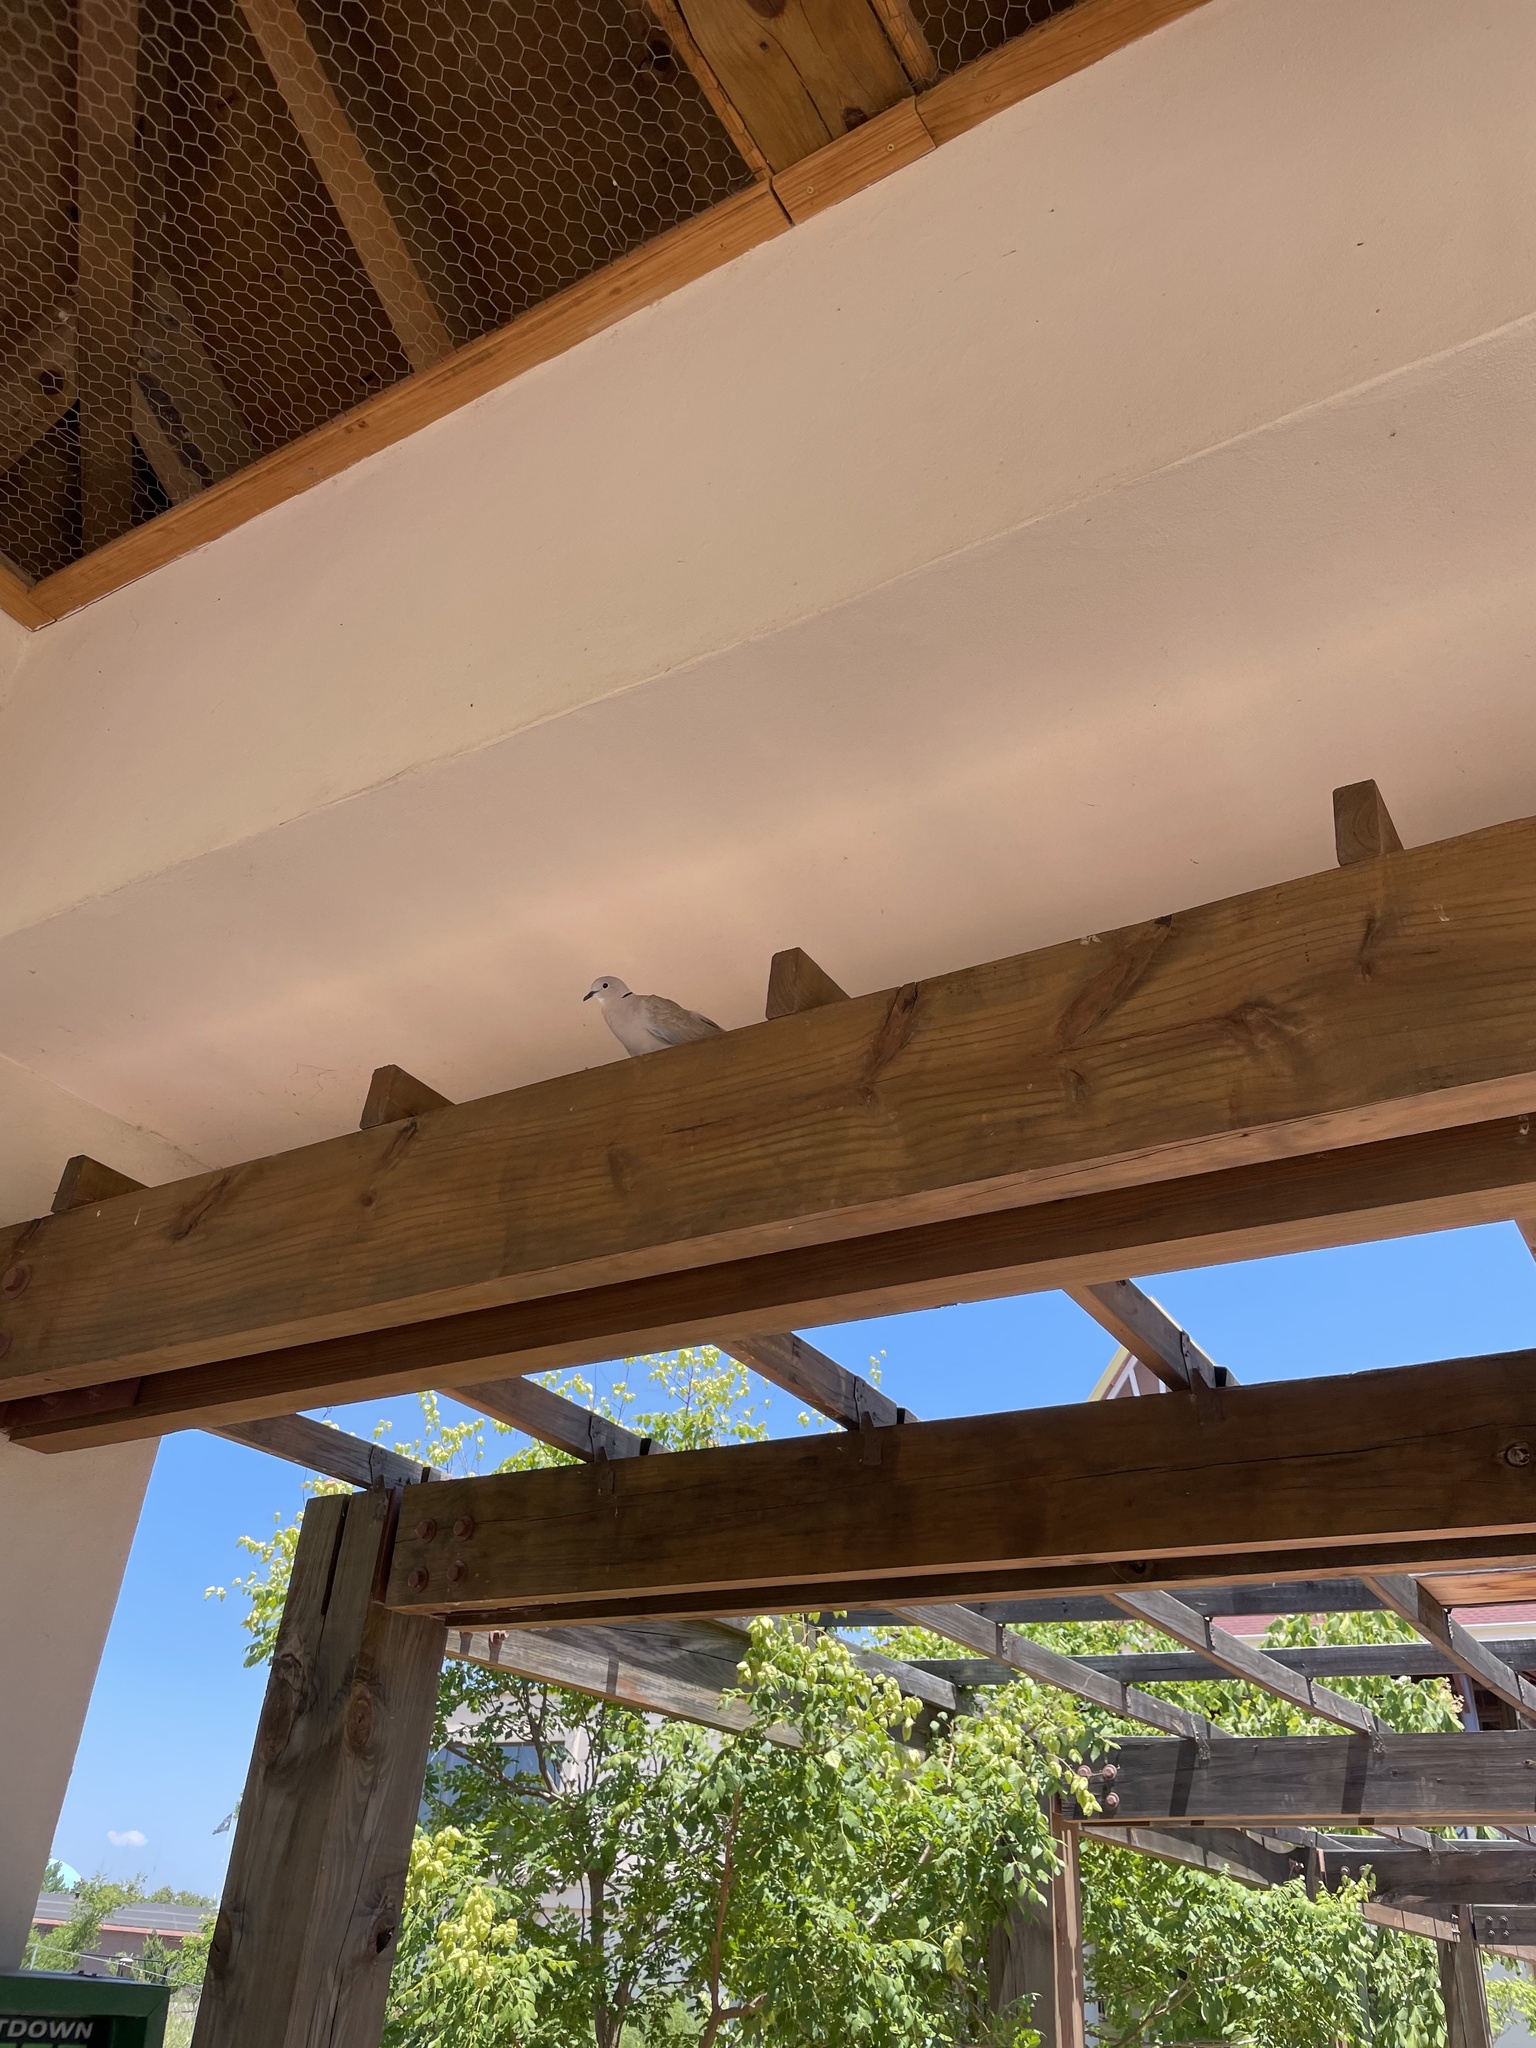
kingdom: Animalia
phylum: Chordata
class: Aves
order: Columbiformes
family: Columbidae
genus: Streptopelia
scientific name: Streptopelia decaocto
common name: Eurasian collared dove
